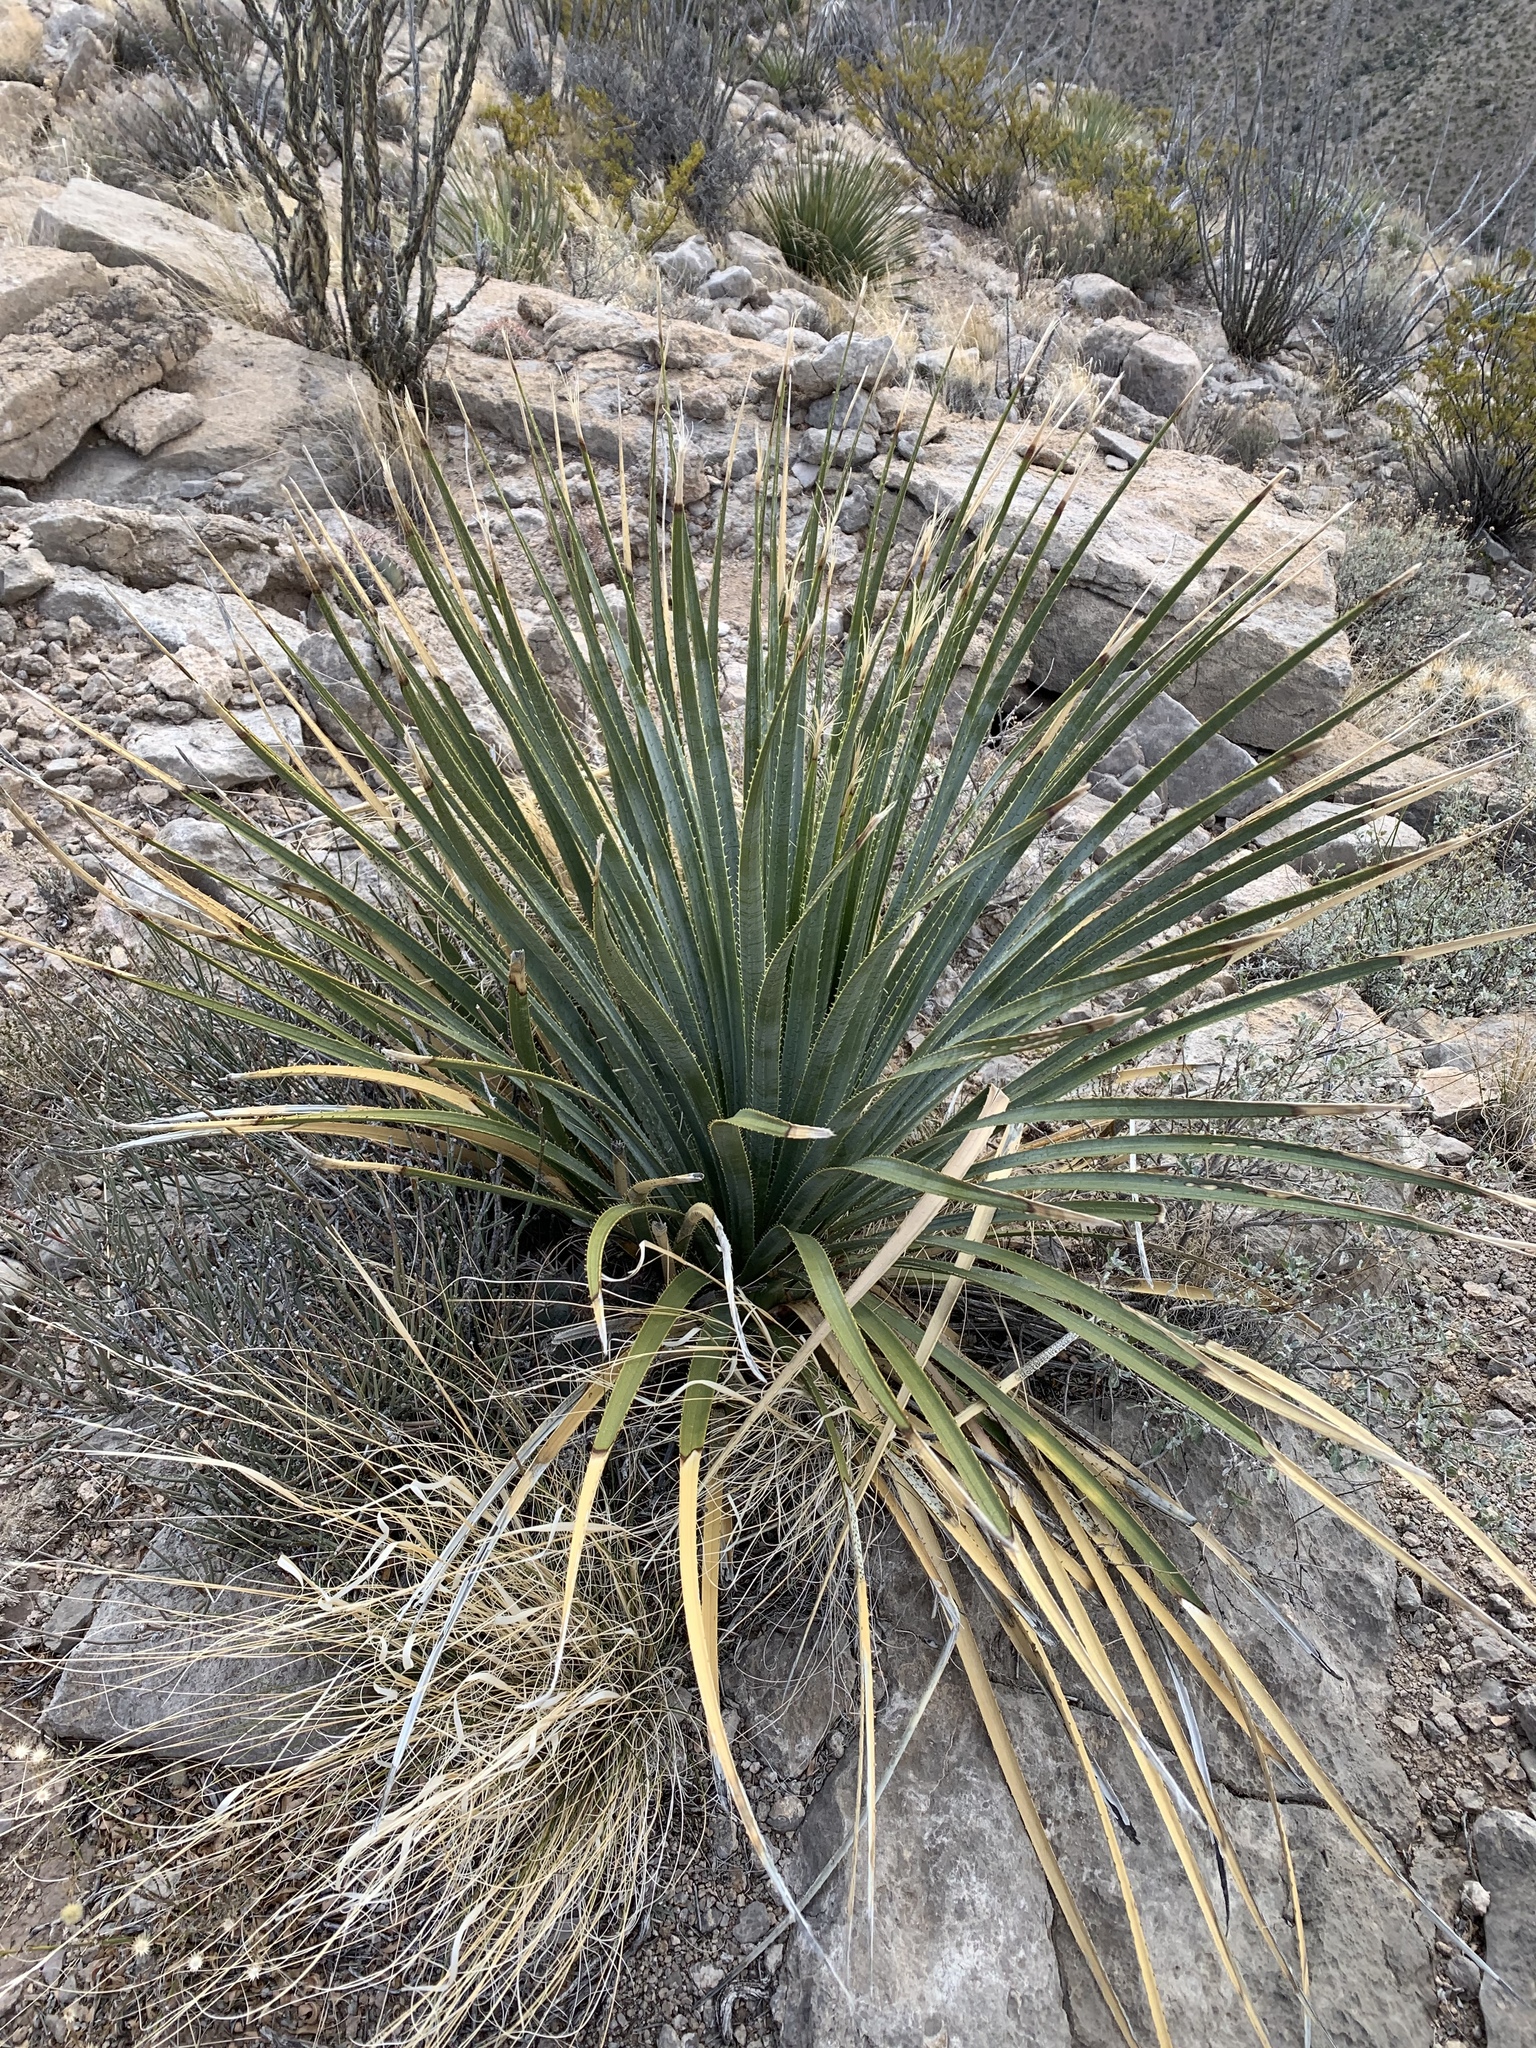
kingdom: Plantae
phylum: Tracheophyta
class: Liliopsida
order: Asparagales
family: Asparagaceae
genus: Dasylirion
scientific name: Dasylirion wheeleri
